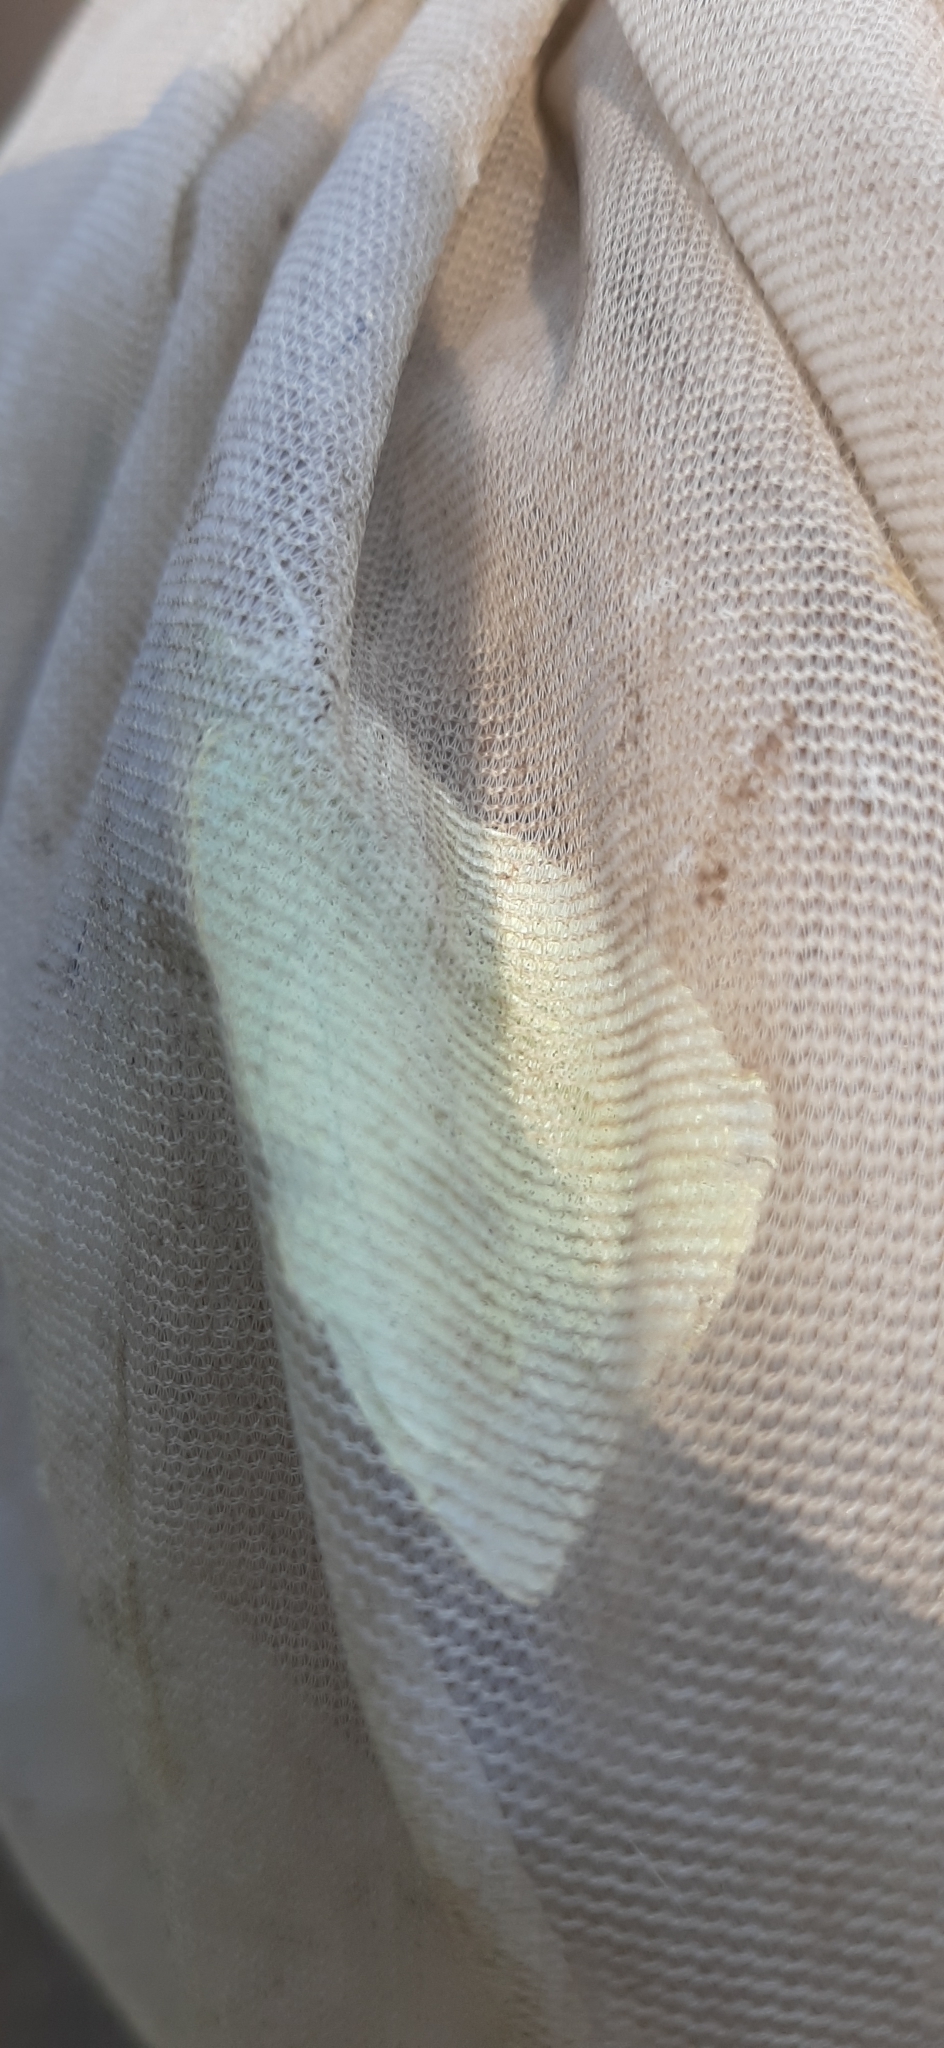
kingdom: Animalia
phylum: Arthropoda
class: Insecta
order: Lepidoptera
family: Pieridae
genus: Pieris
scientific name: Pieris brassicae
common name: Large white
